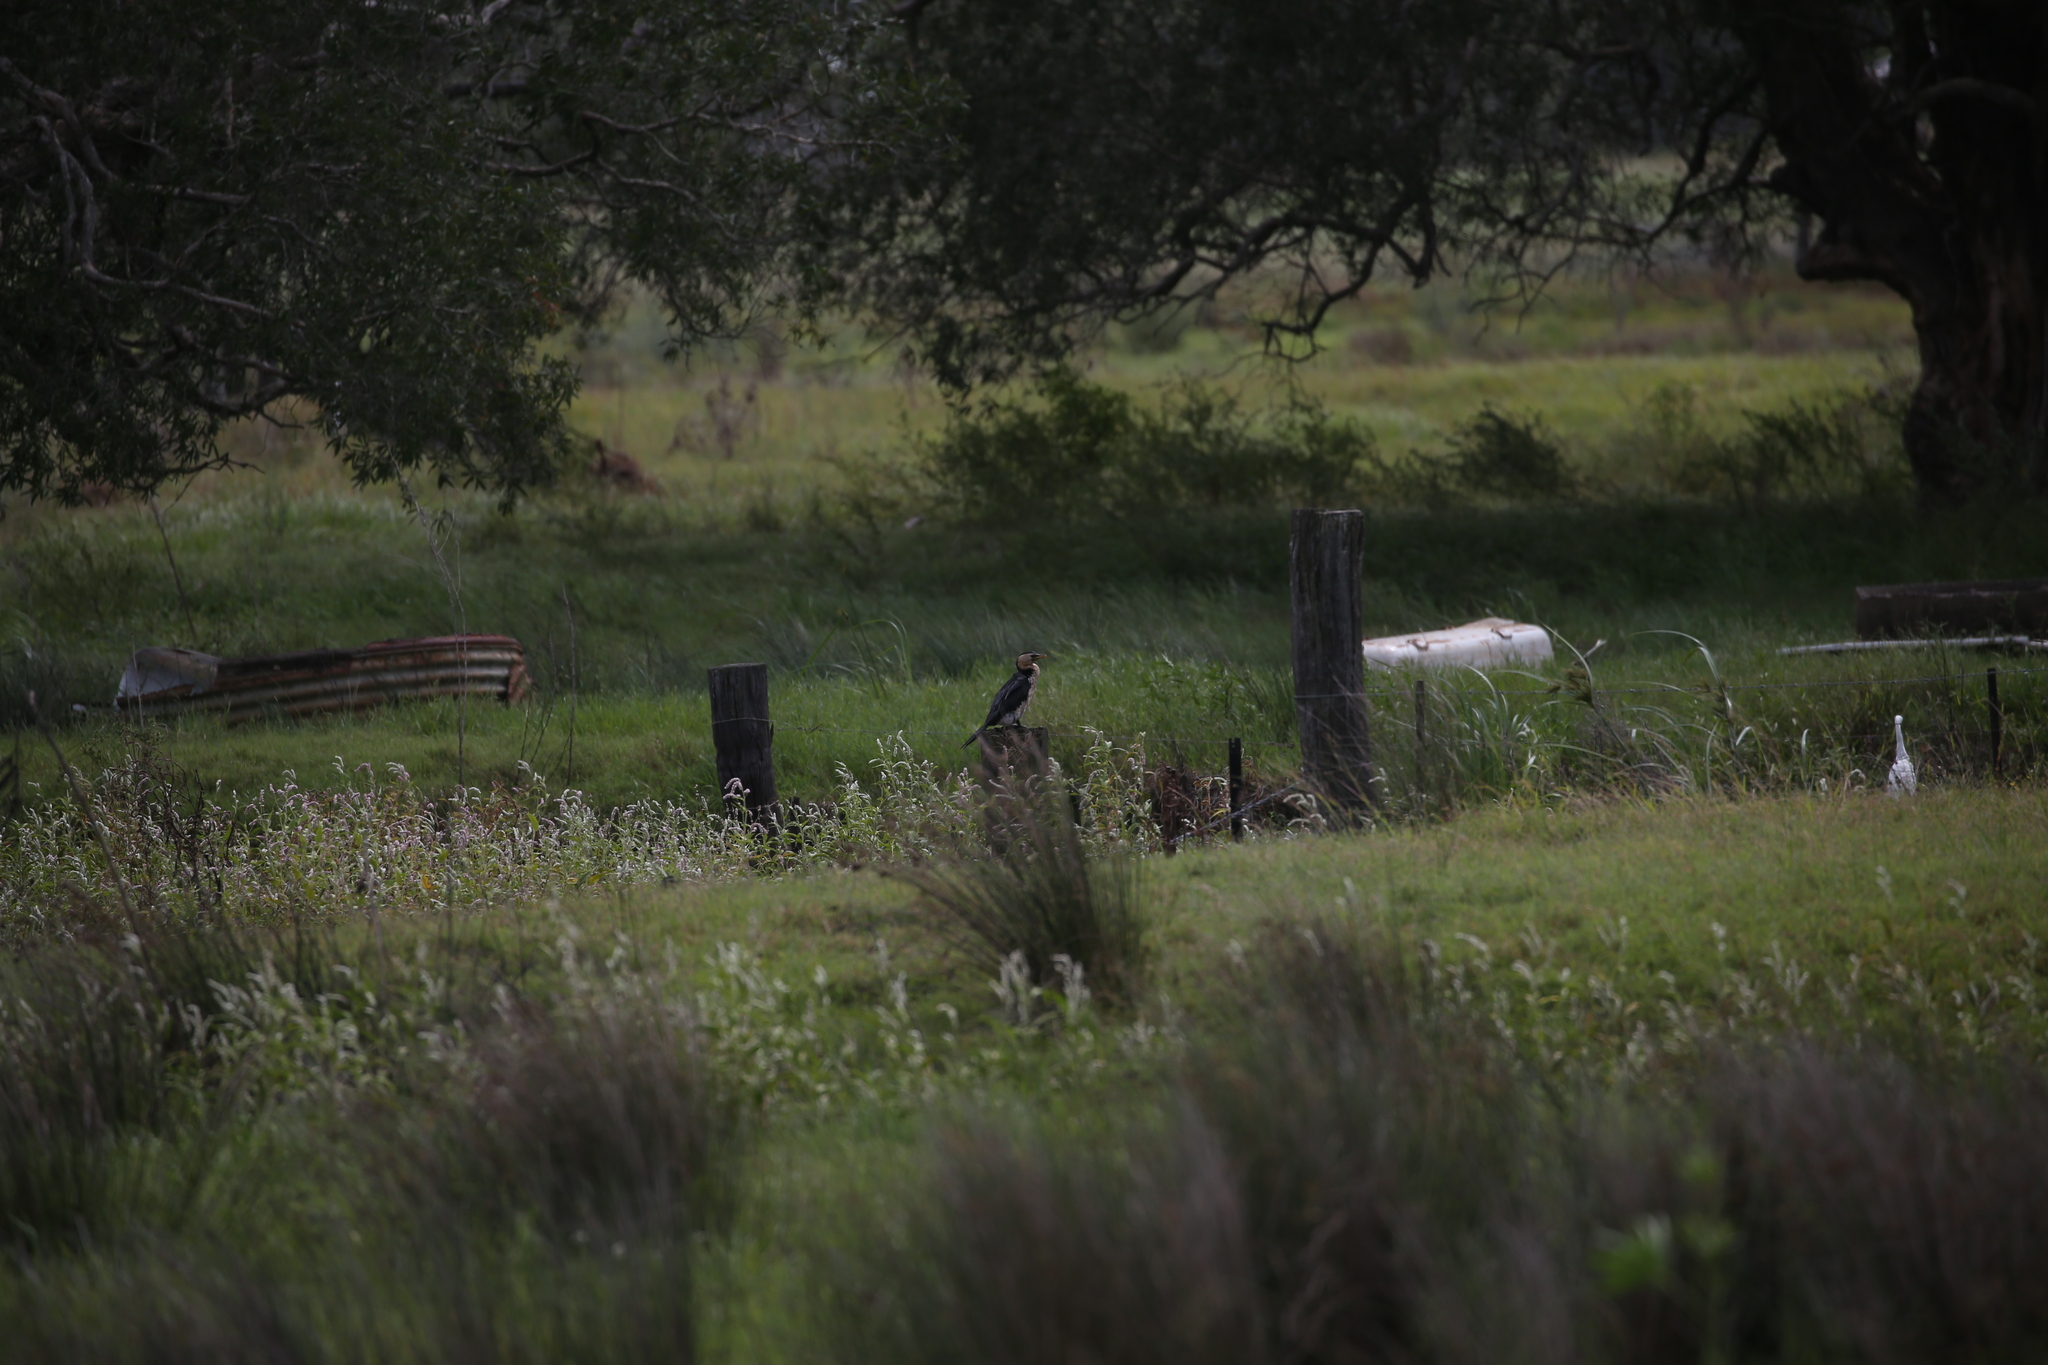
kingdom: Animalia
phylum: Chordata
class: Aves
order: Suliformes
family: Phalacrocoracidae
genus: Microcarbo
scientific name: Microcarbo melanoleucos
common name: Little pied cormorant
